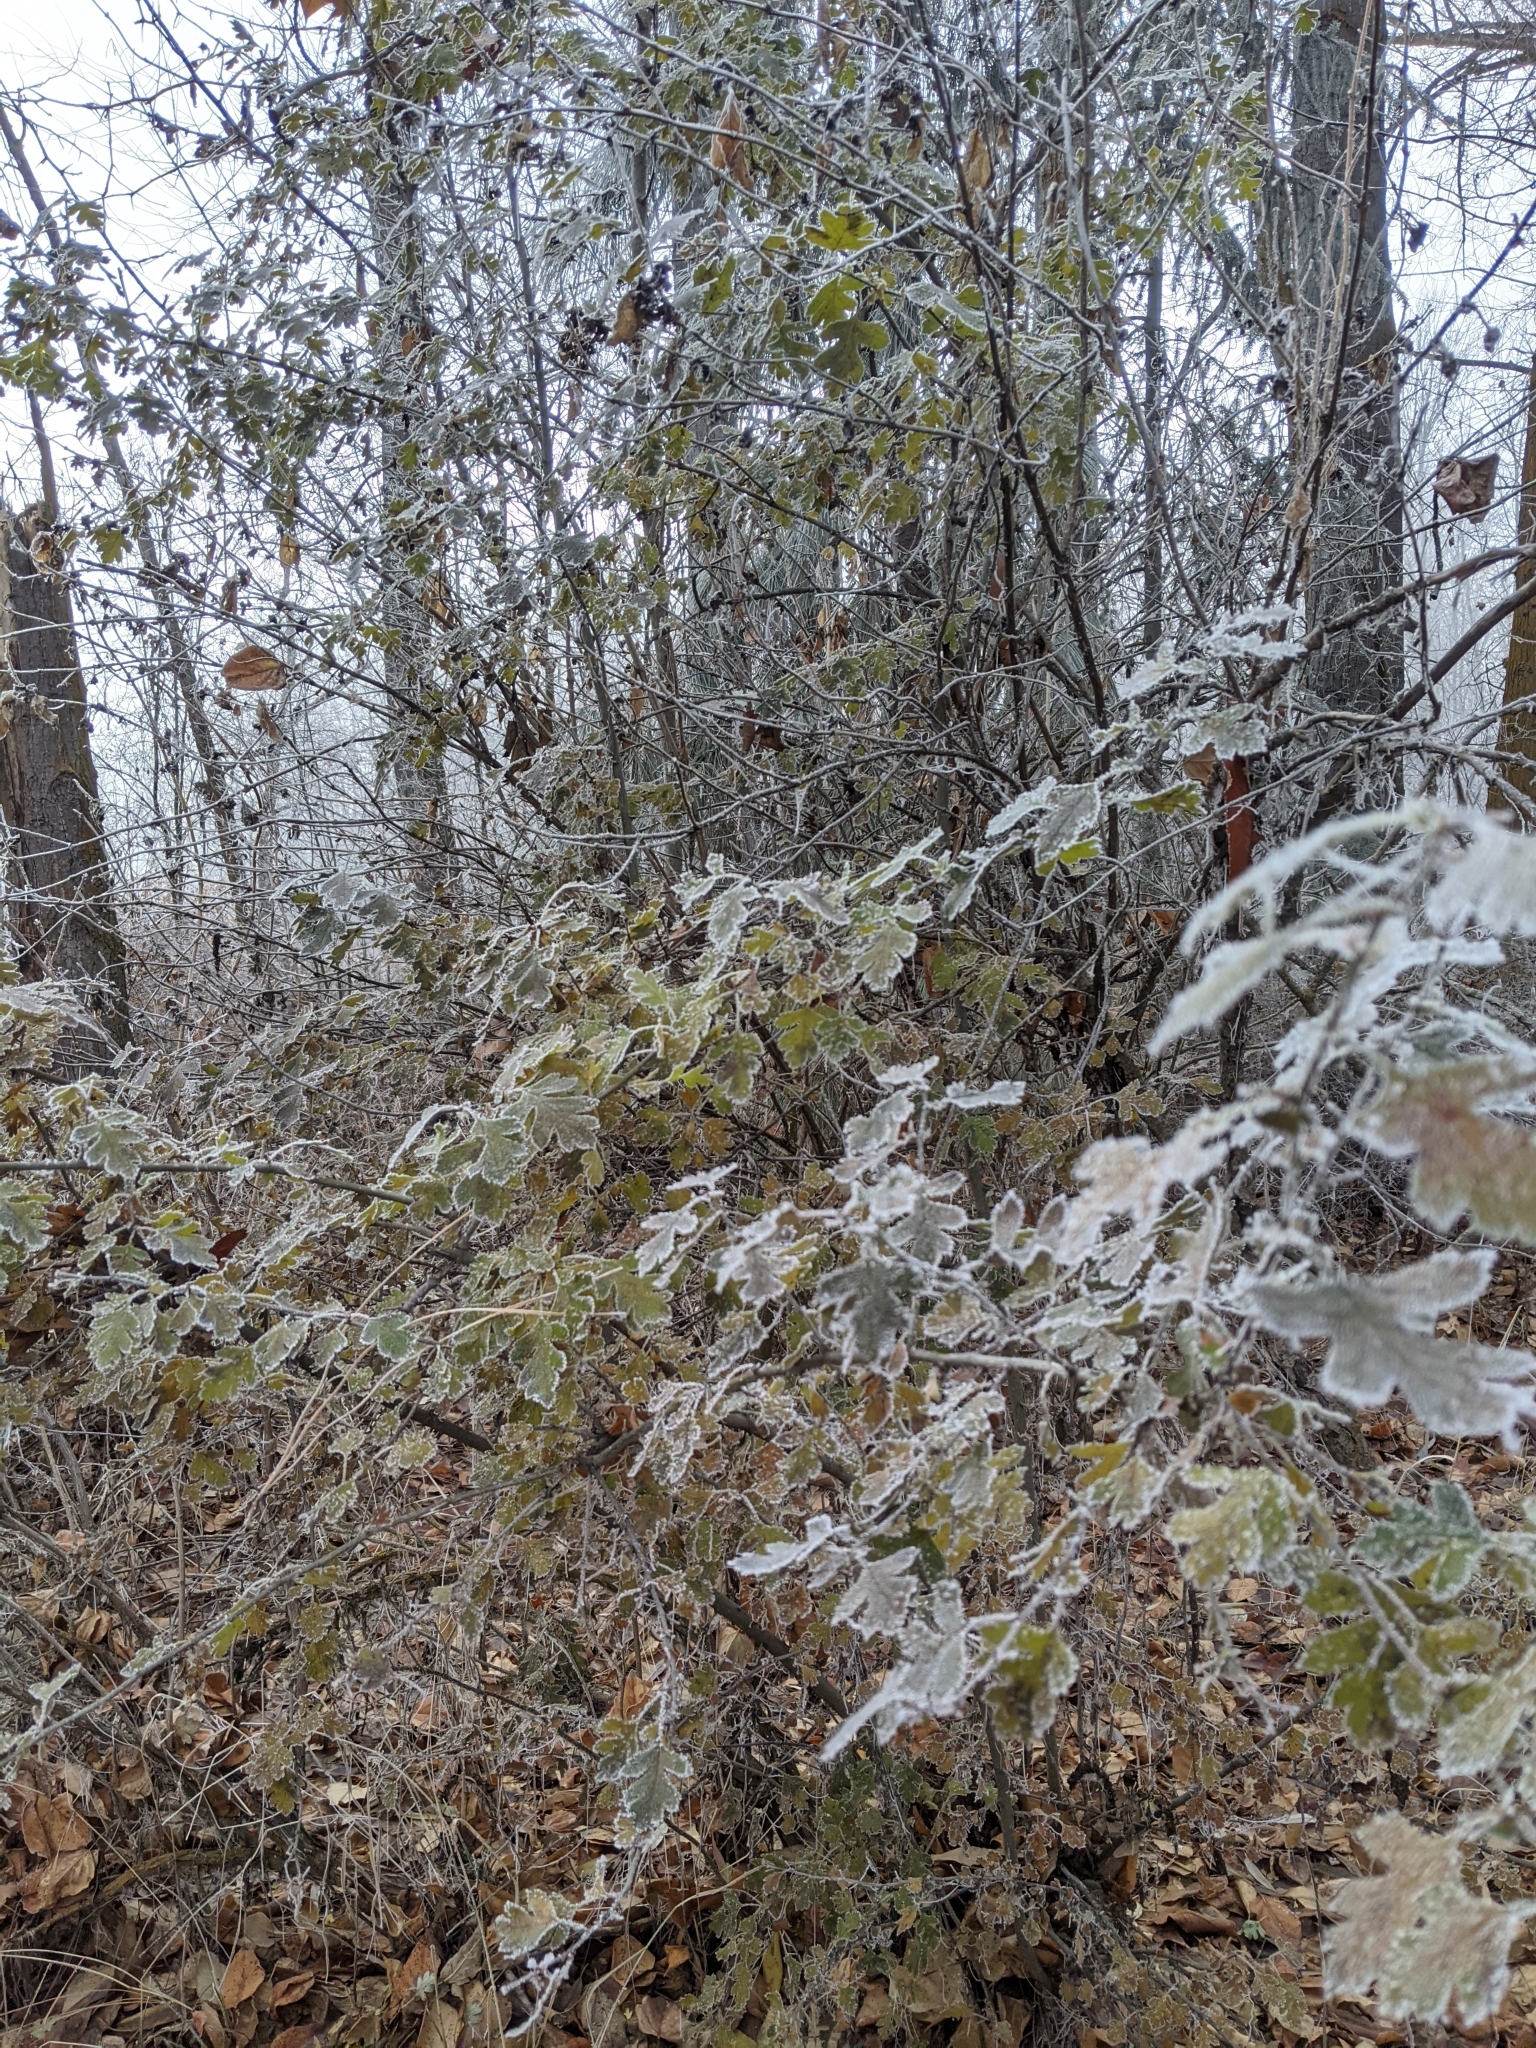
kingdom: Plantae
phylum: Tracheophyta
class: Magnoliopsida
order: Rosales
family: Rosaceae
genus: Crataegus
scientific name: Crataegus monogyna
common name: Hawthorn
